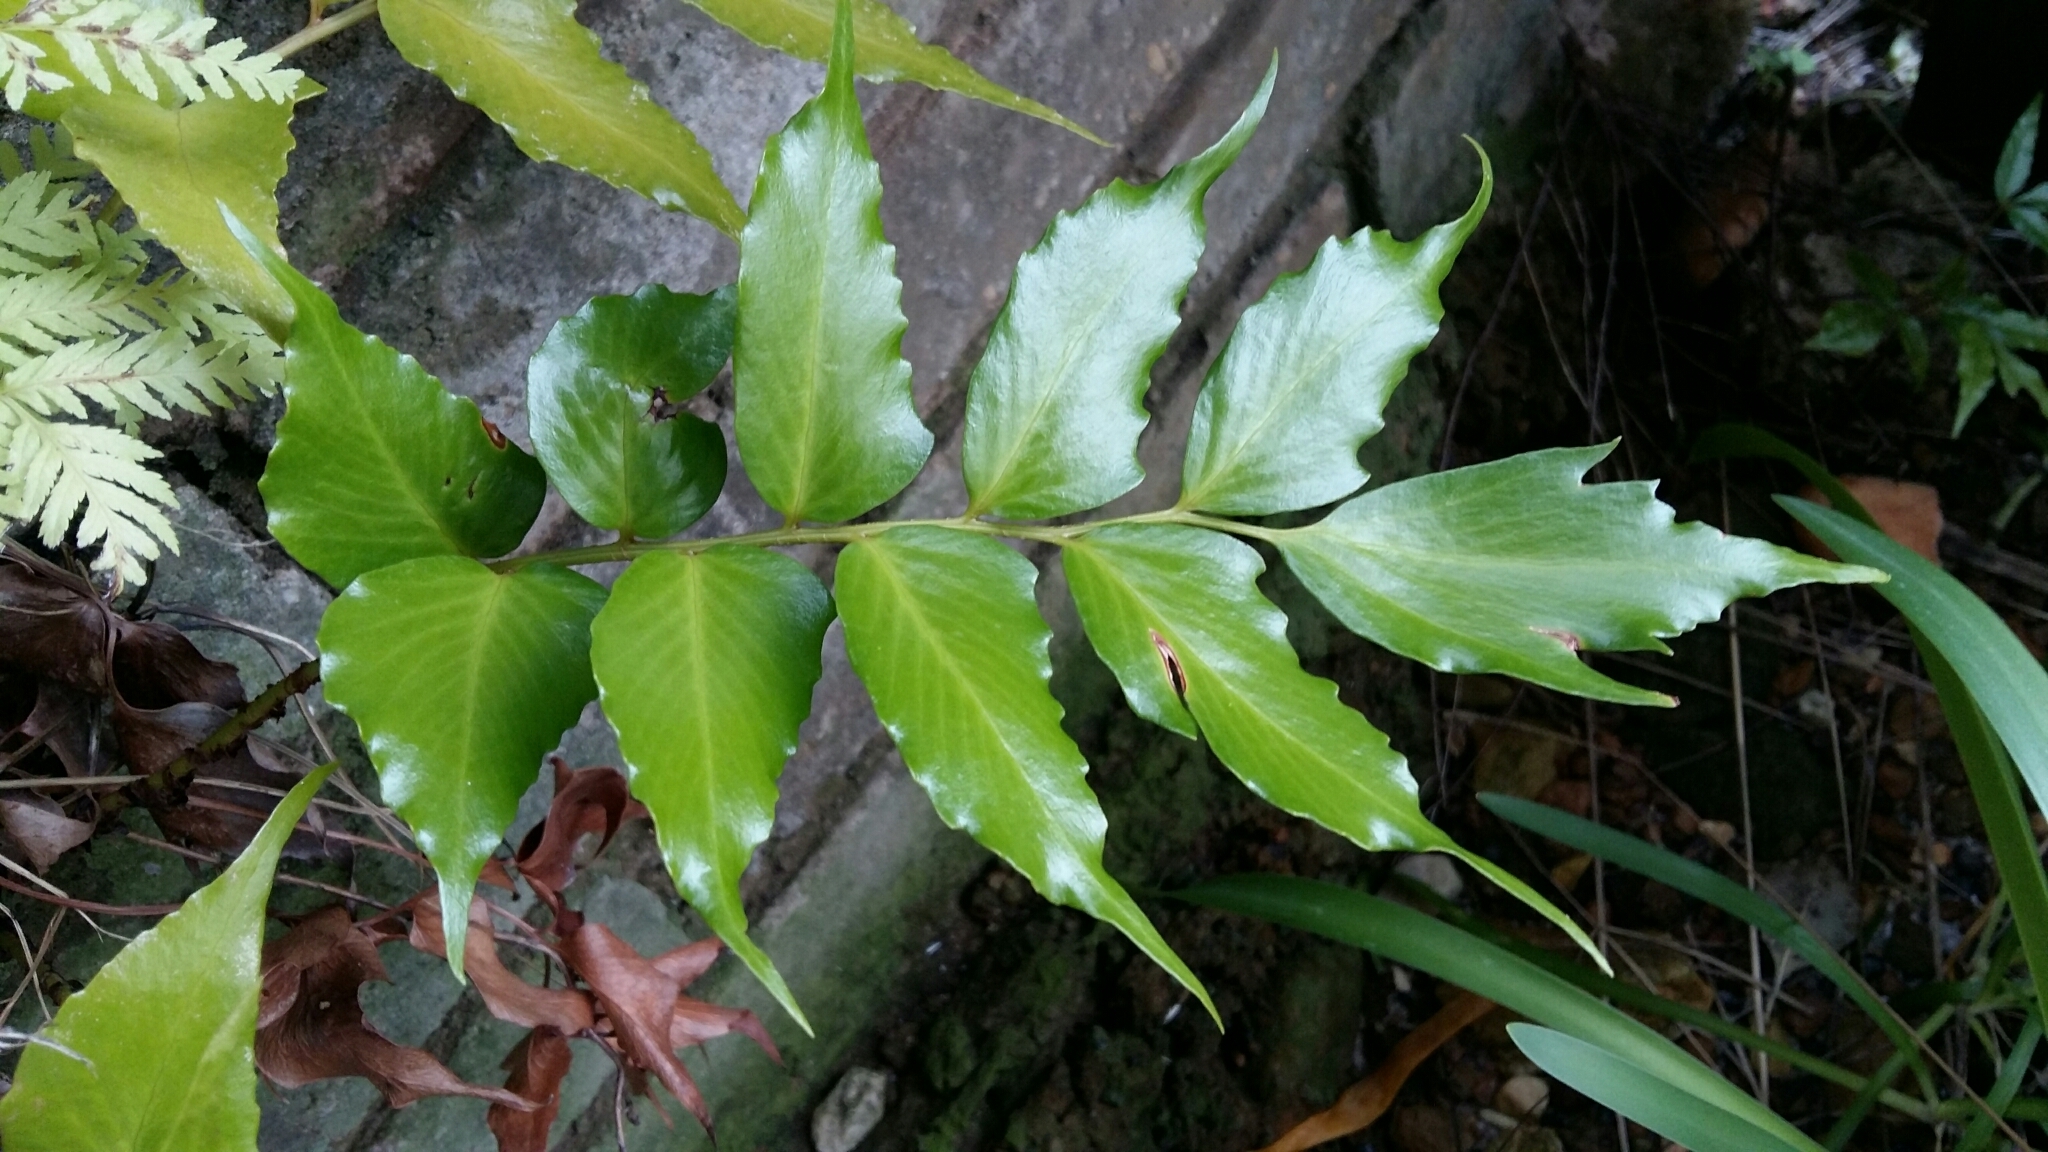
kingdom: Plantae
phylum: Tracheophyta
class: Polypodiopsida
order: Polypodiales
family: Dryopteridaceae
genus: Cyrtomium
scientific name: Cyrtomium falcatum
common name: House holly-fern
